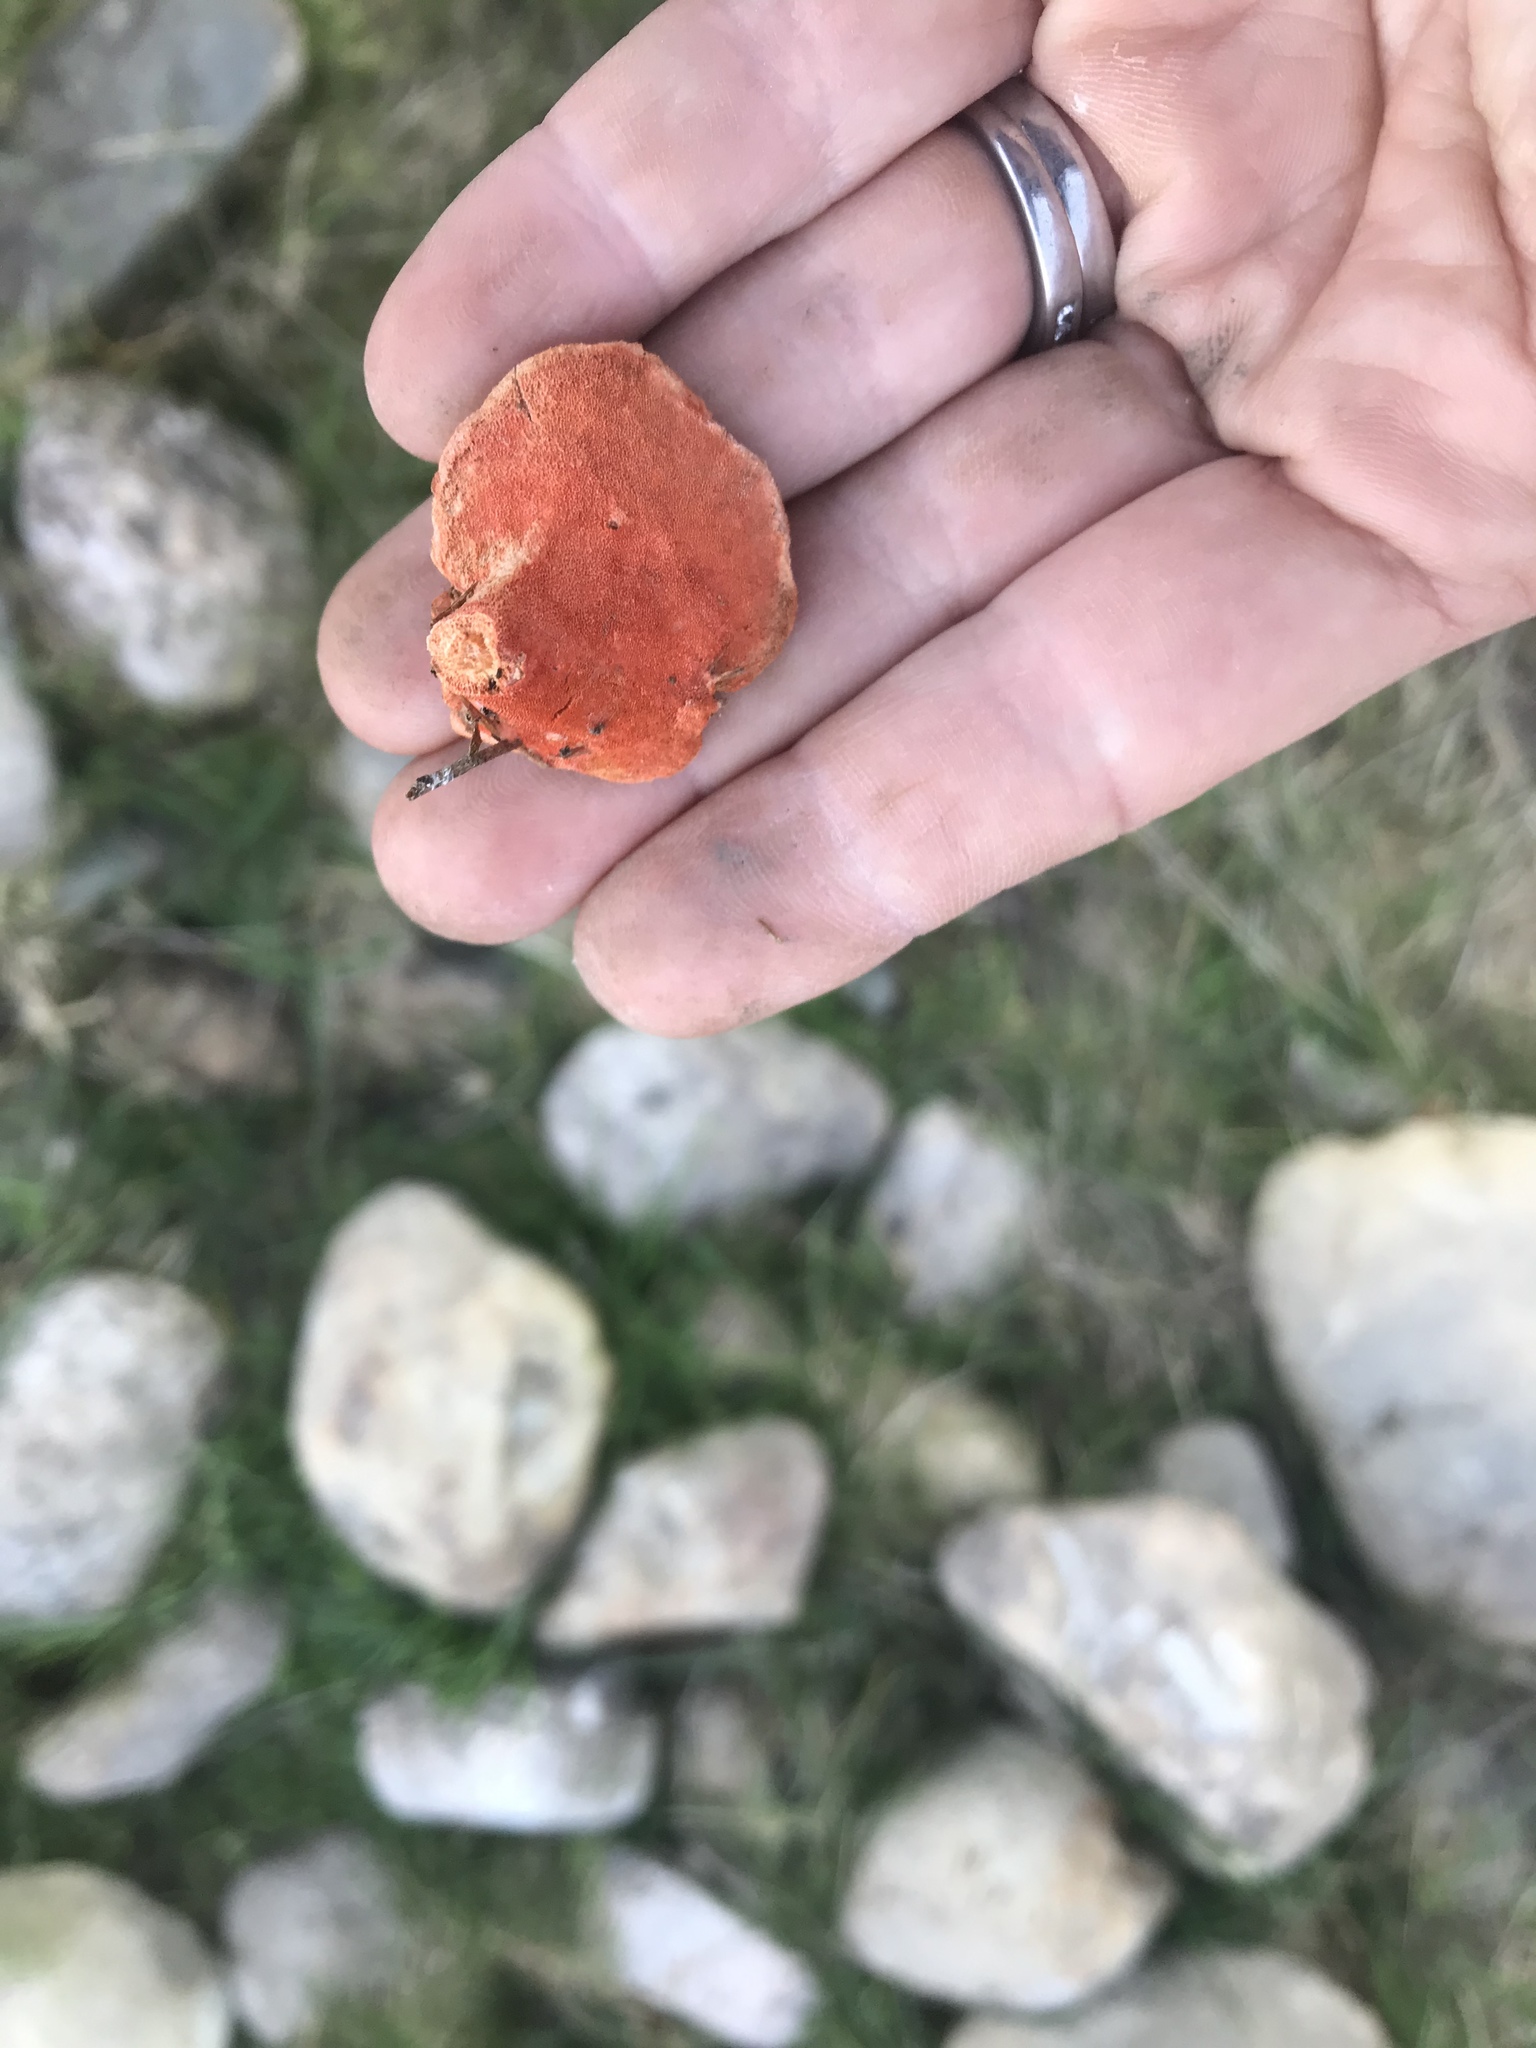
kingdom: Fungi
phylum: Basidiomycota
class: Agaricomycetes
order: Polyporales
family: Polyporaceae
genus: Trametes
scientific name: Trametes coccinea
